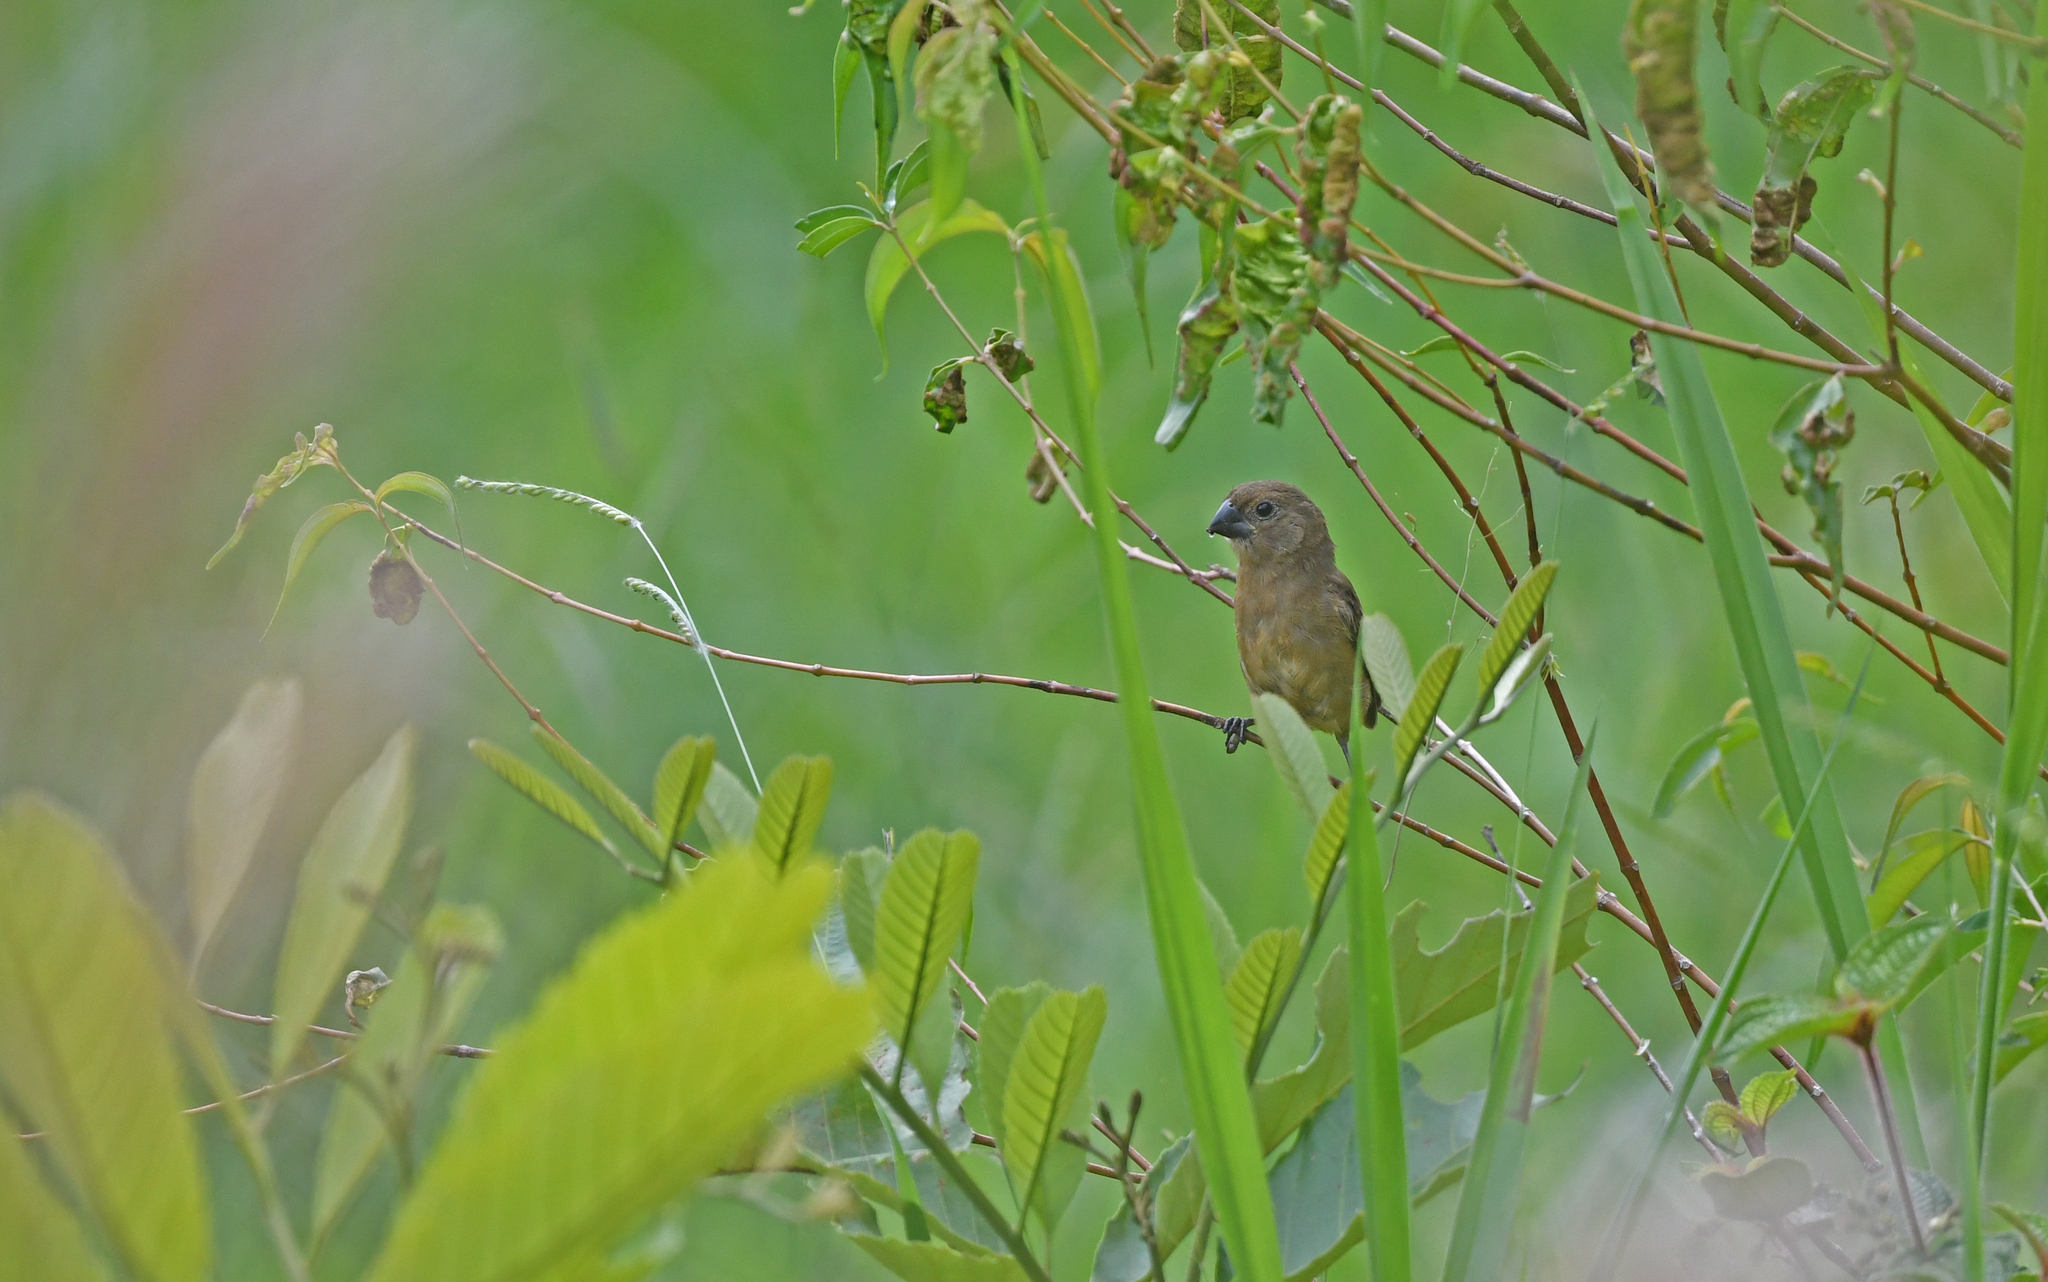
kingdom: Animalia
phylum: Chordata
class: Aves
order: Passeriformes
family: Thraupidae
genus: Sporophila
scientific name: Sporophila crassirostris
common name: Large-billed seed-finch
